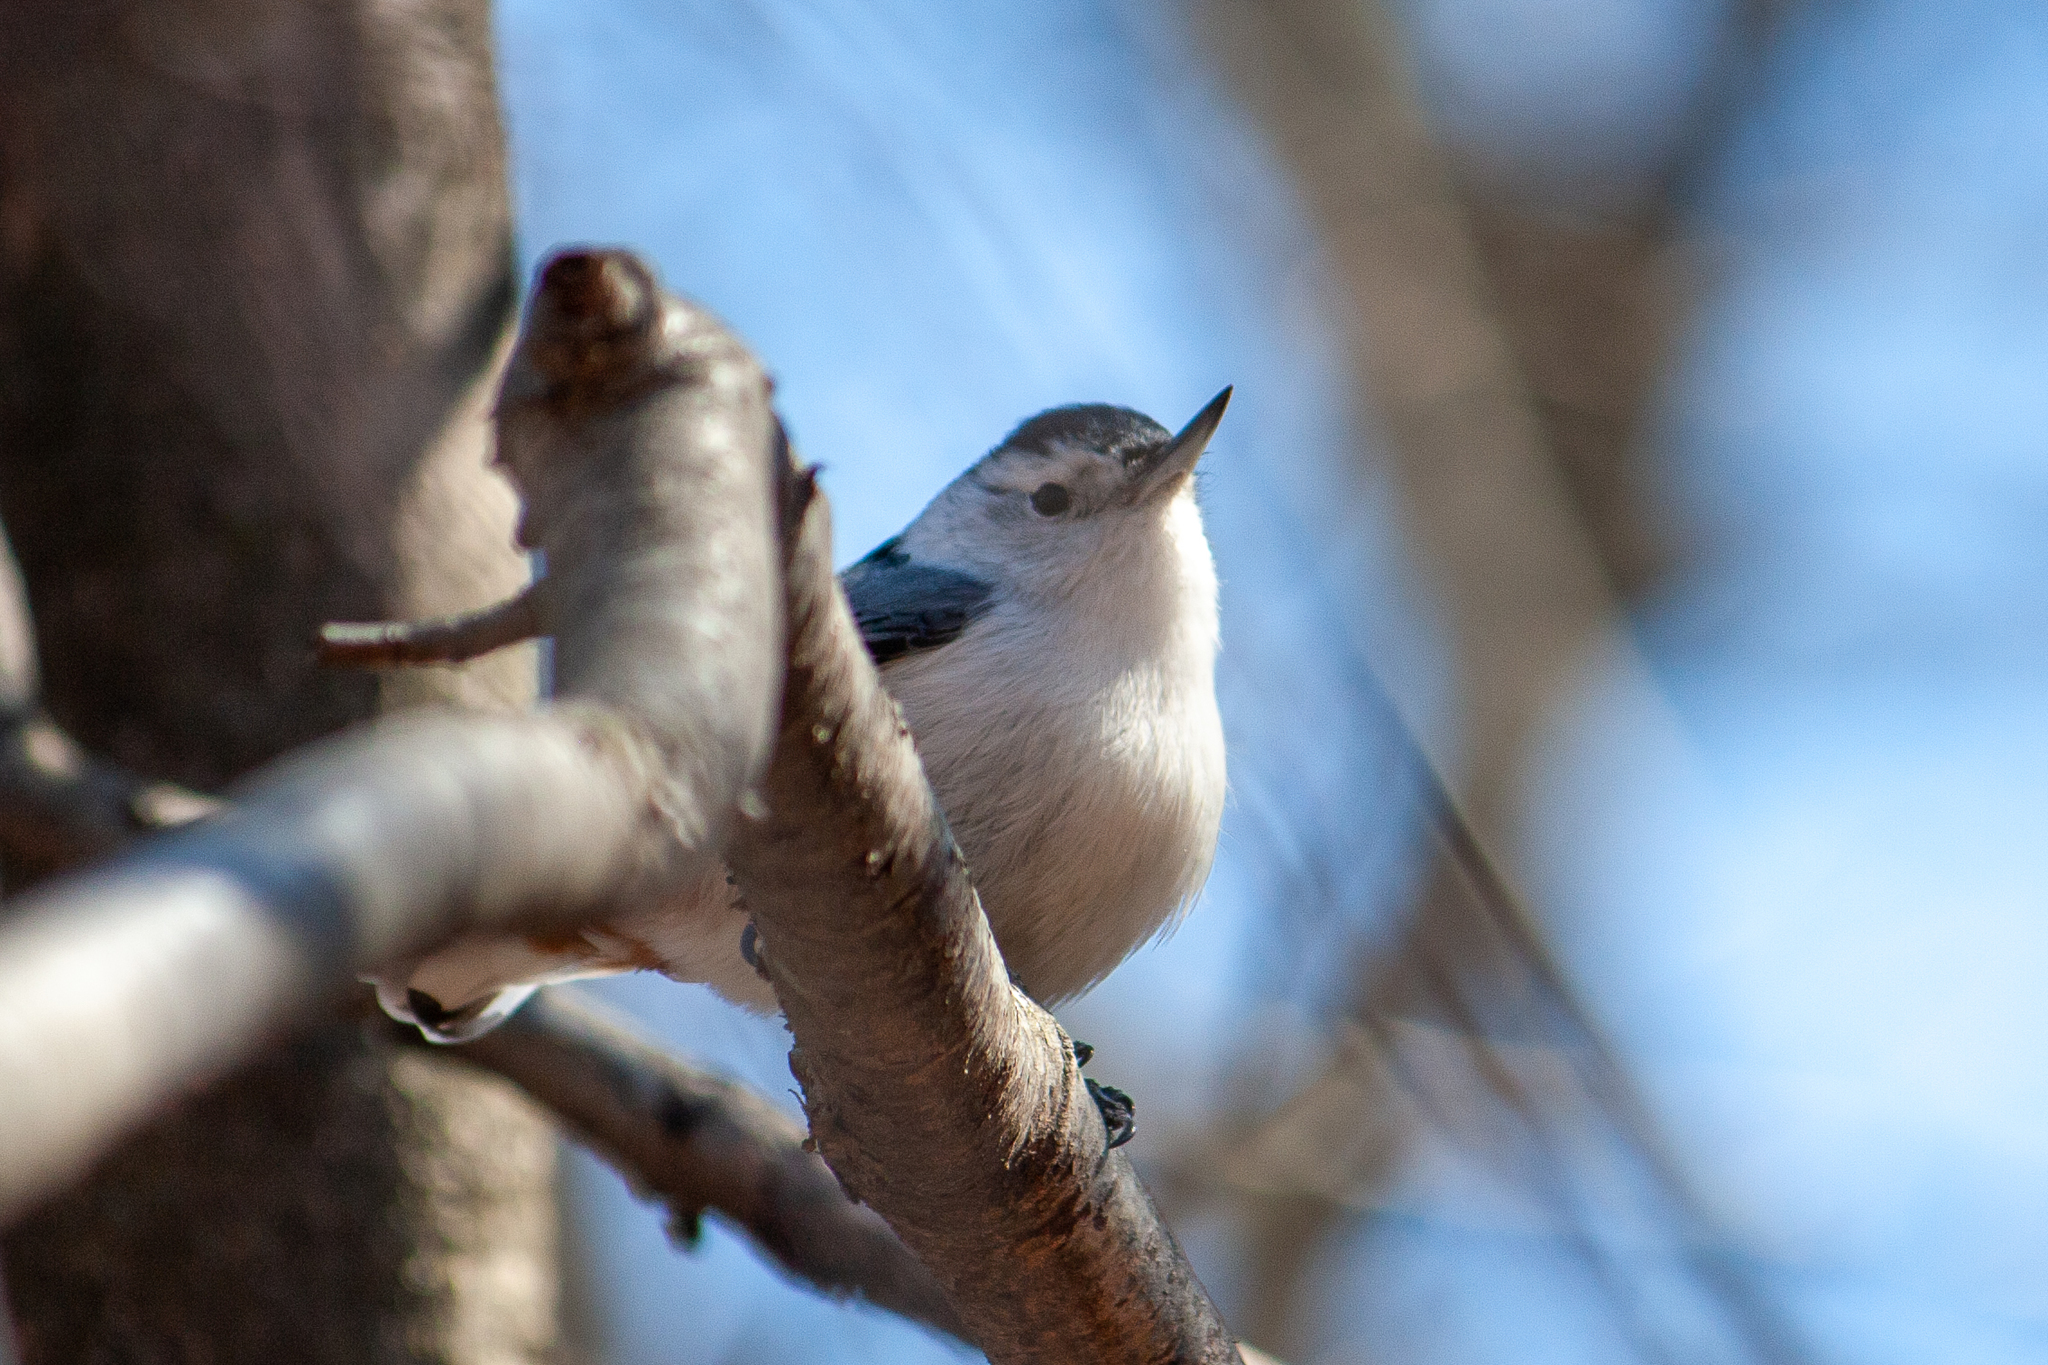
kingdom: Animalia
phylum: Chordata
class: Aves
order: Passeriformes
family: Sittidae
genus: Sitta
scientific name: Sitta carolinensis
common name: White-breasted nuthatch
